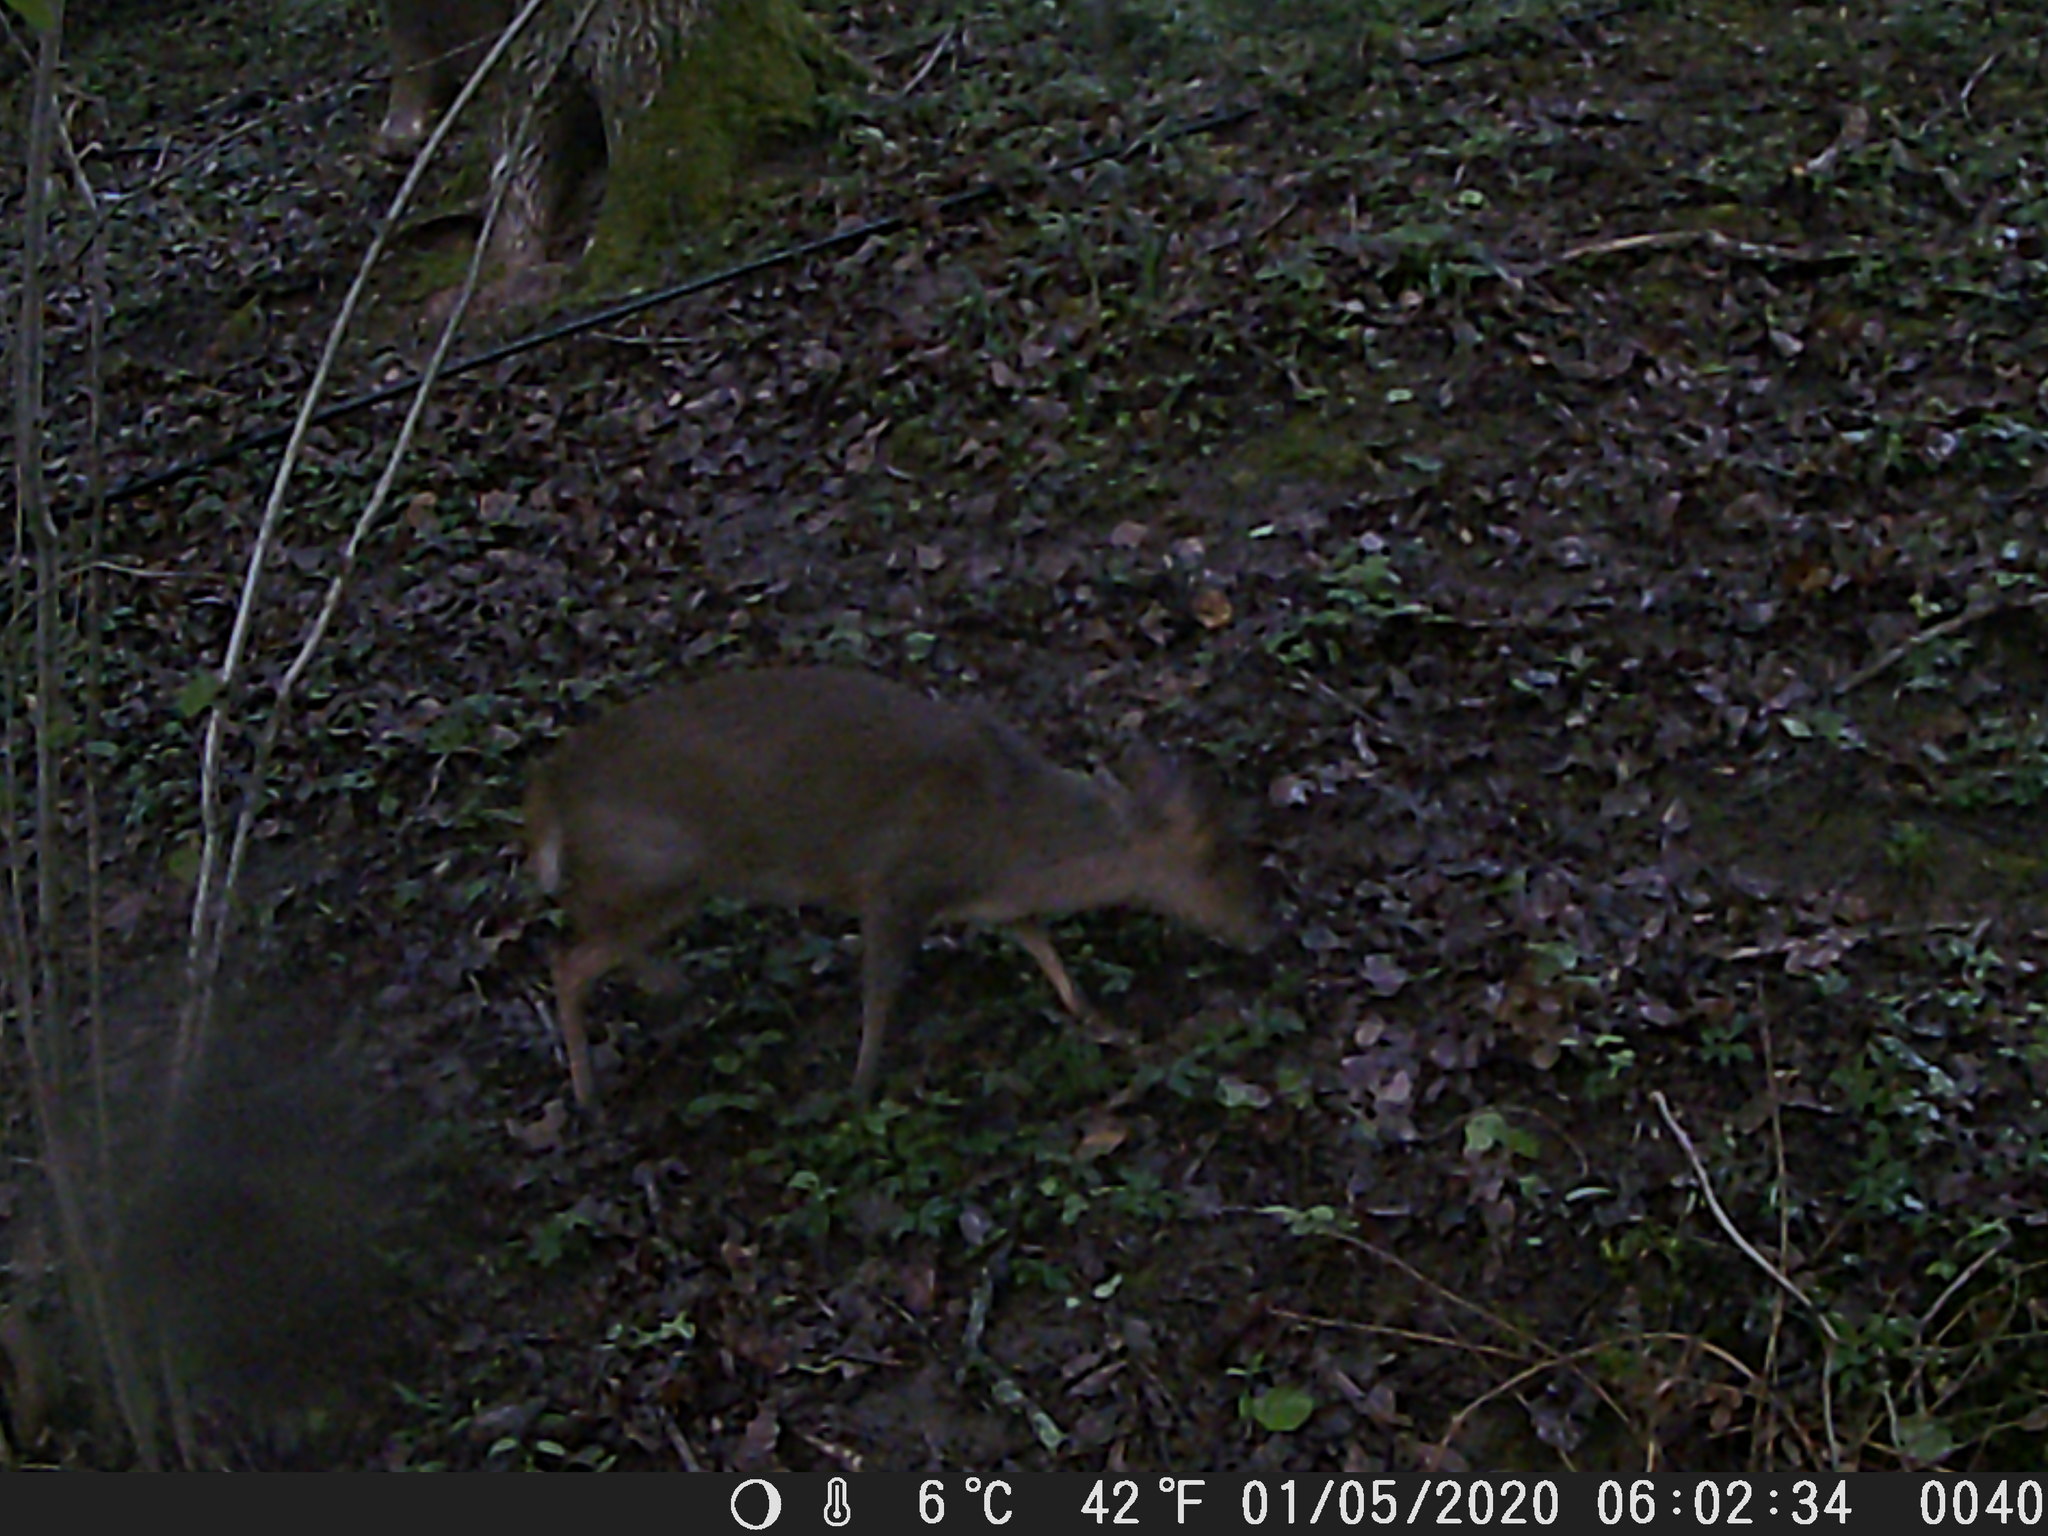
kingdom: Animalia
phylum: Chordata
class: Mammalia
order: Artiodactyla
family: Cervidae
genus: Muntiacus
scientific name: Muntiacus reevesi
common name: Reeves' muntjac
